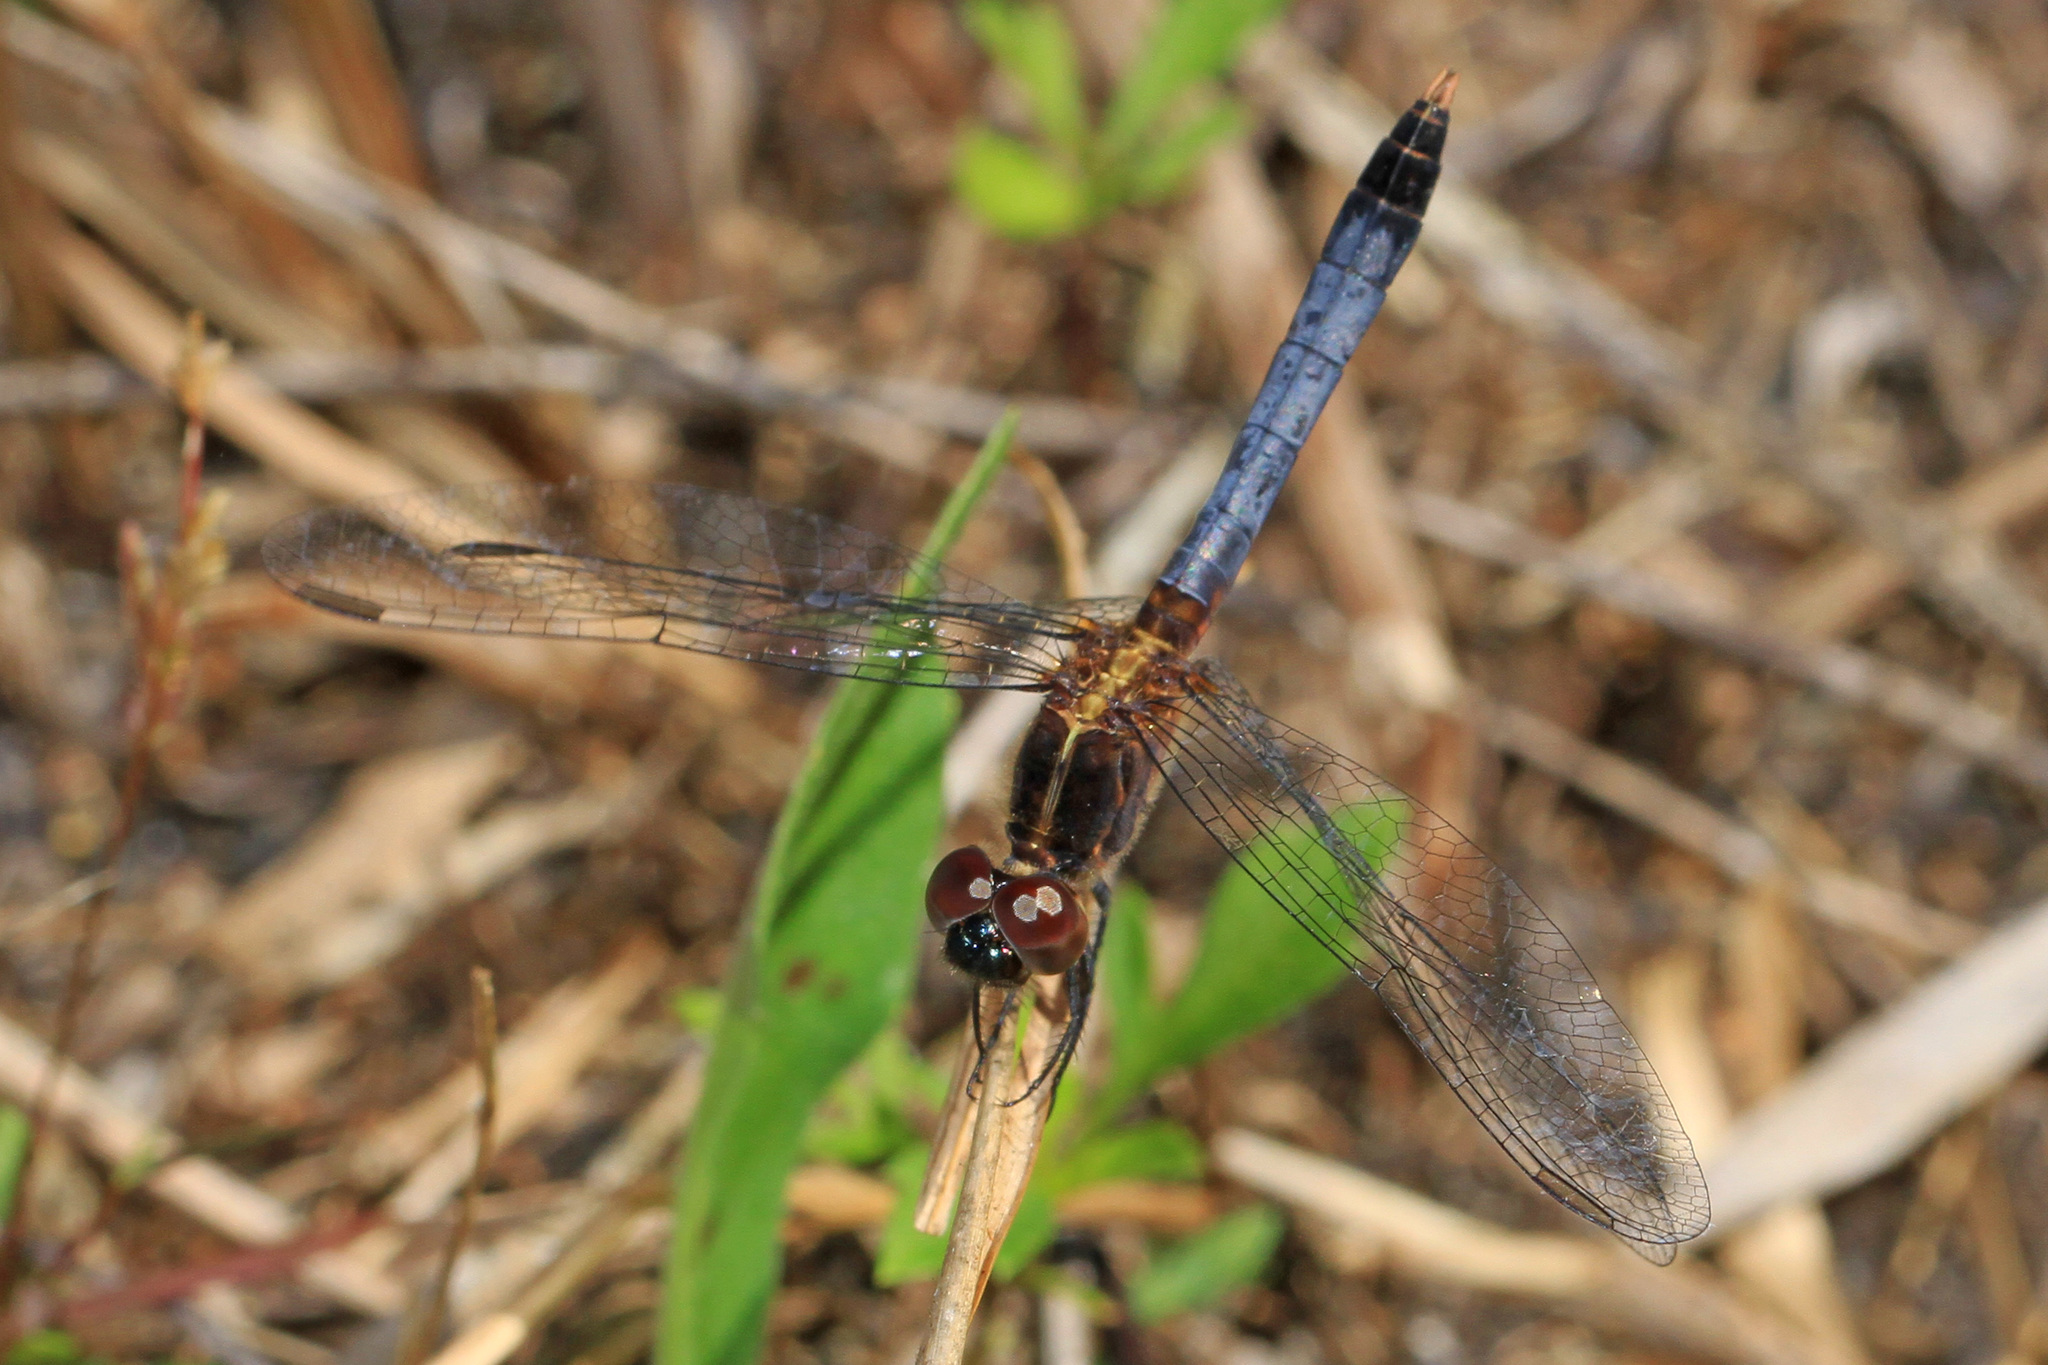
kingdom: Animalia
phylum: Arthropoda
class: Insecta
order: Odonata
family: Libellulidae
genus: Erythrodiplax
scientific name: Erythrodiplax minuscula
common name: Little blue dragonlet
